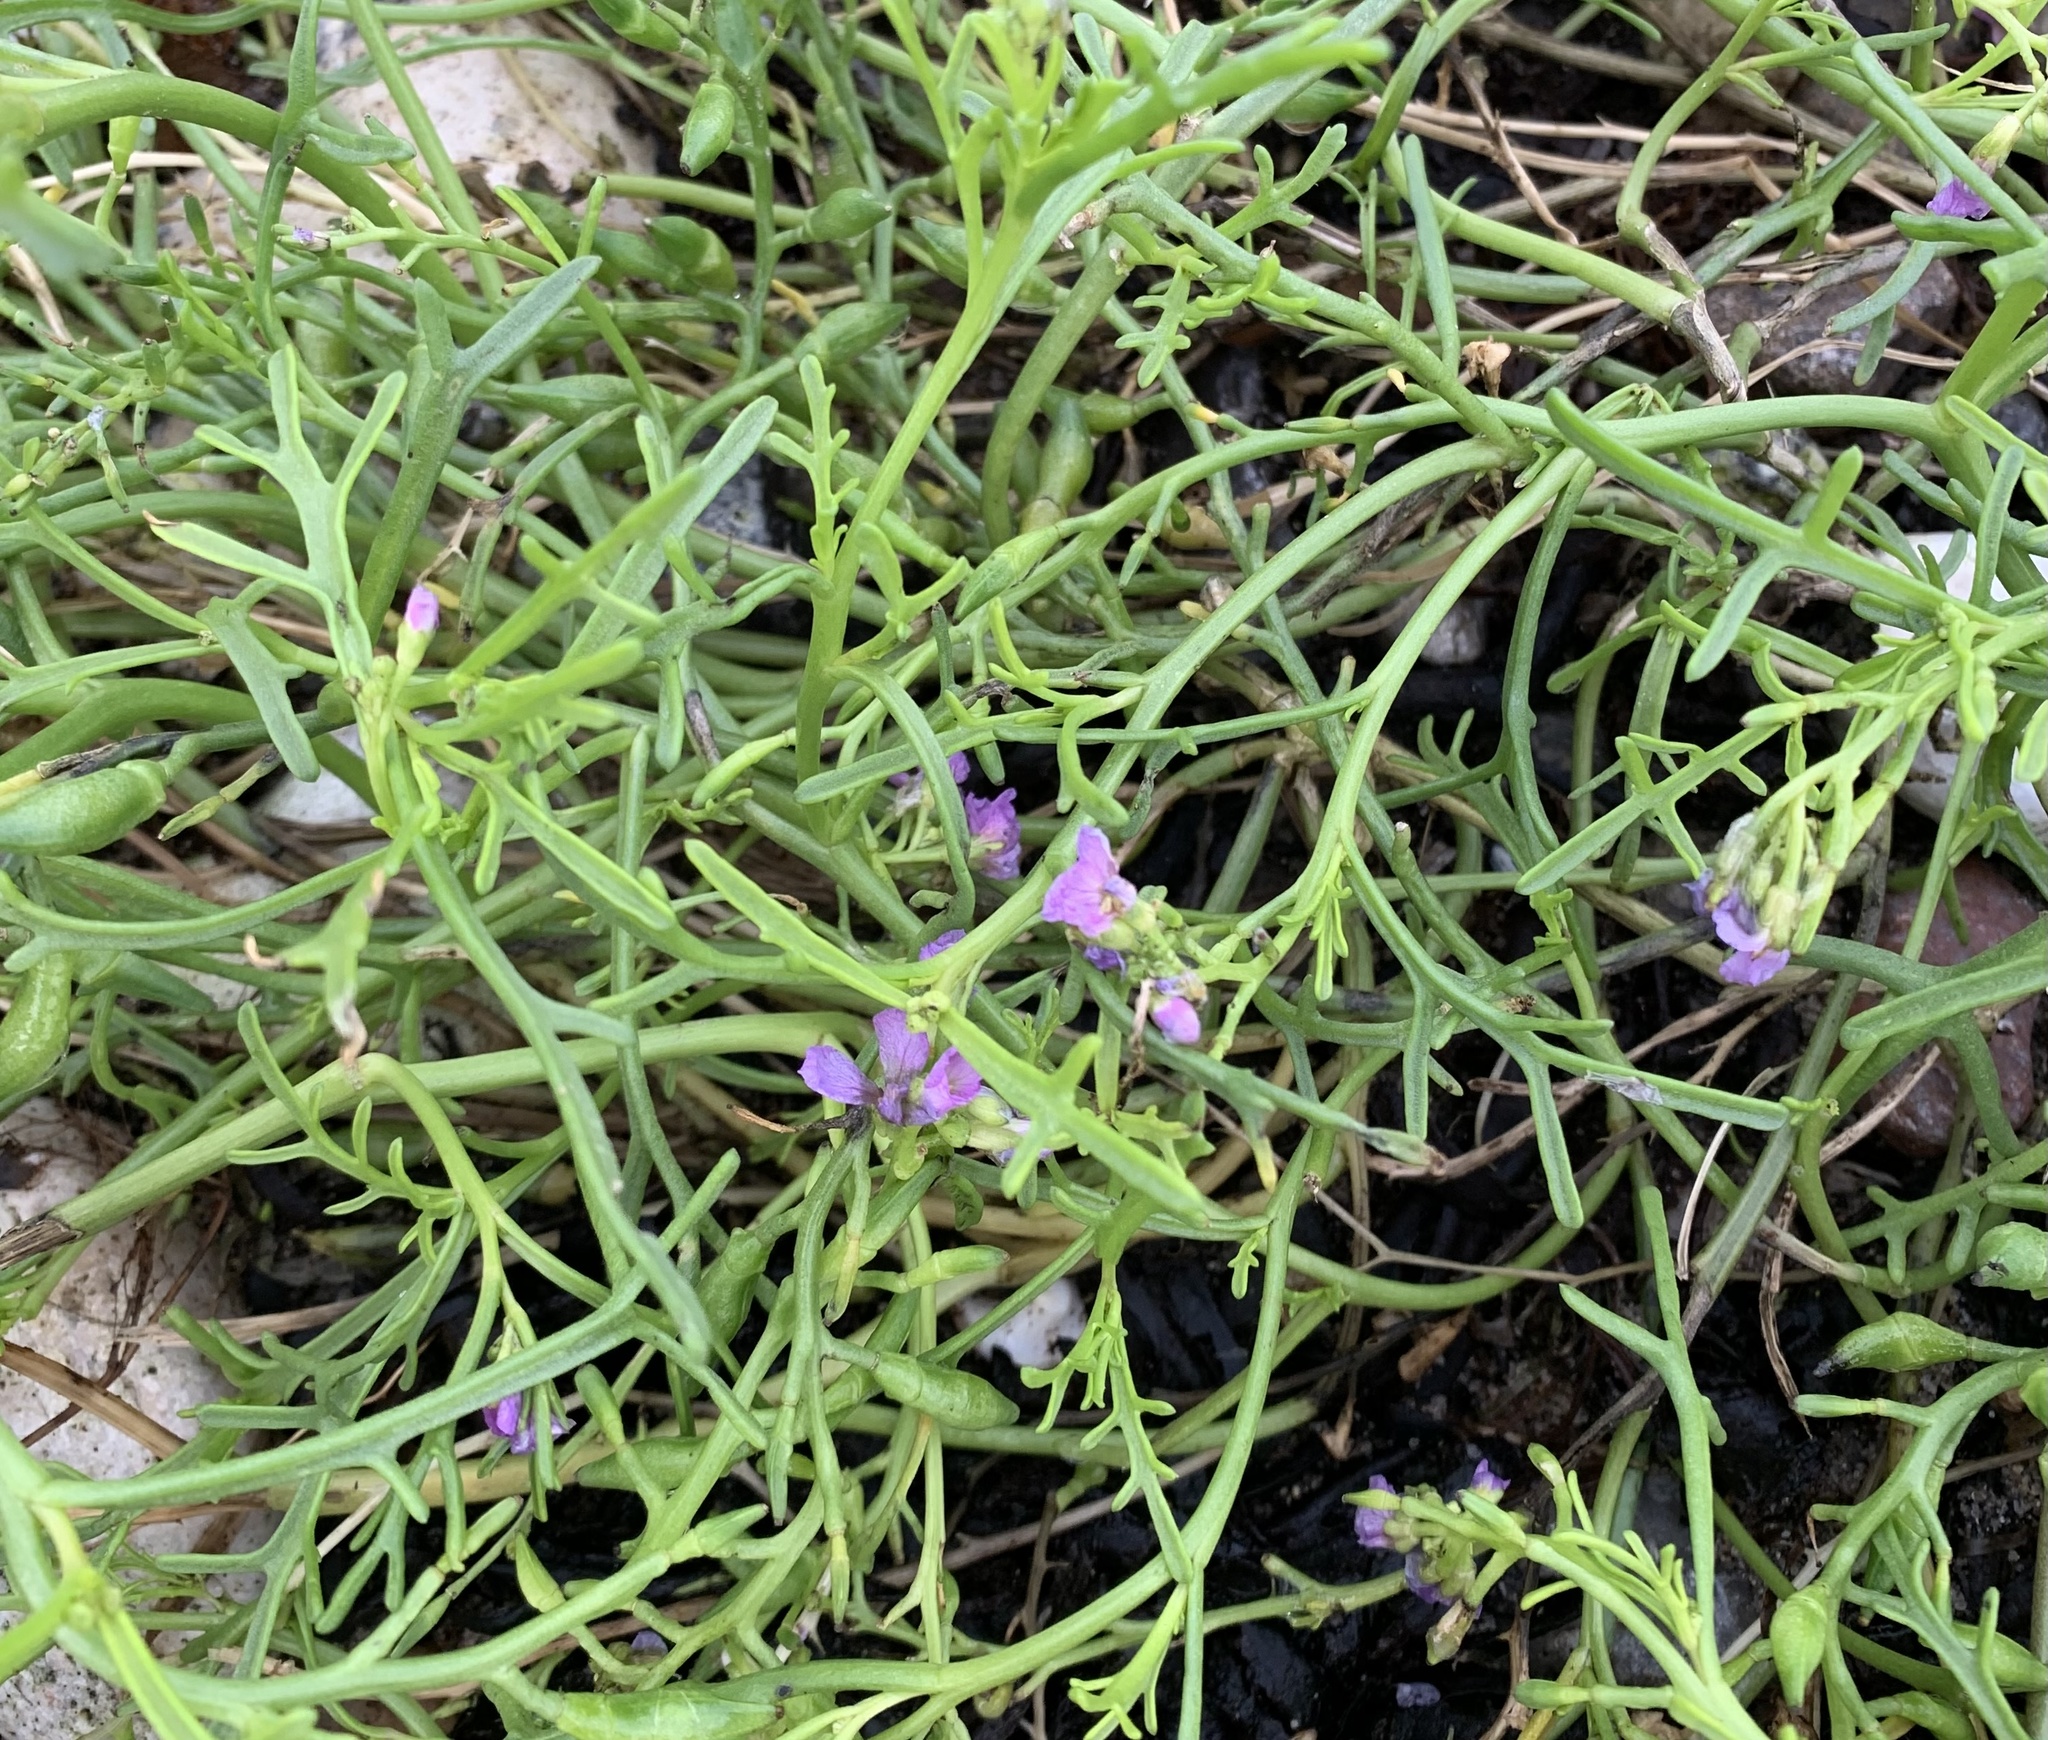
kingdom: Plantae
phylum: Tracheophyta
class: Magnoliopsida
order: Brassicales
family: Brassicaceae
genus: Cakile
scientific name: Cakile maritima
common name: Sea rocket
